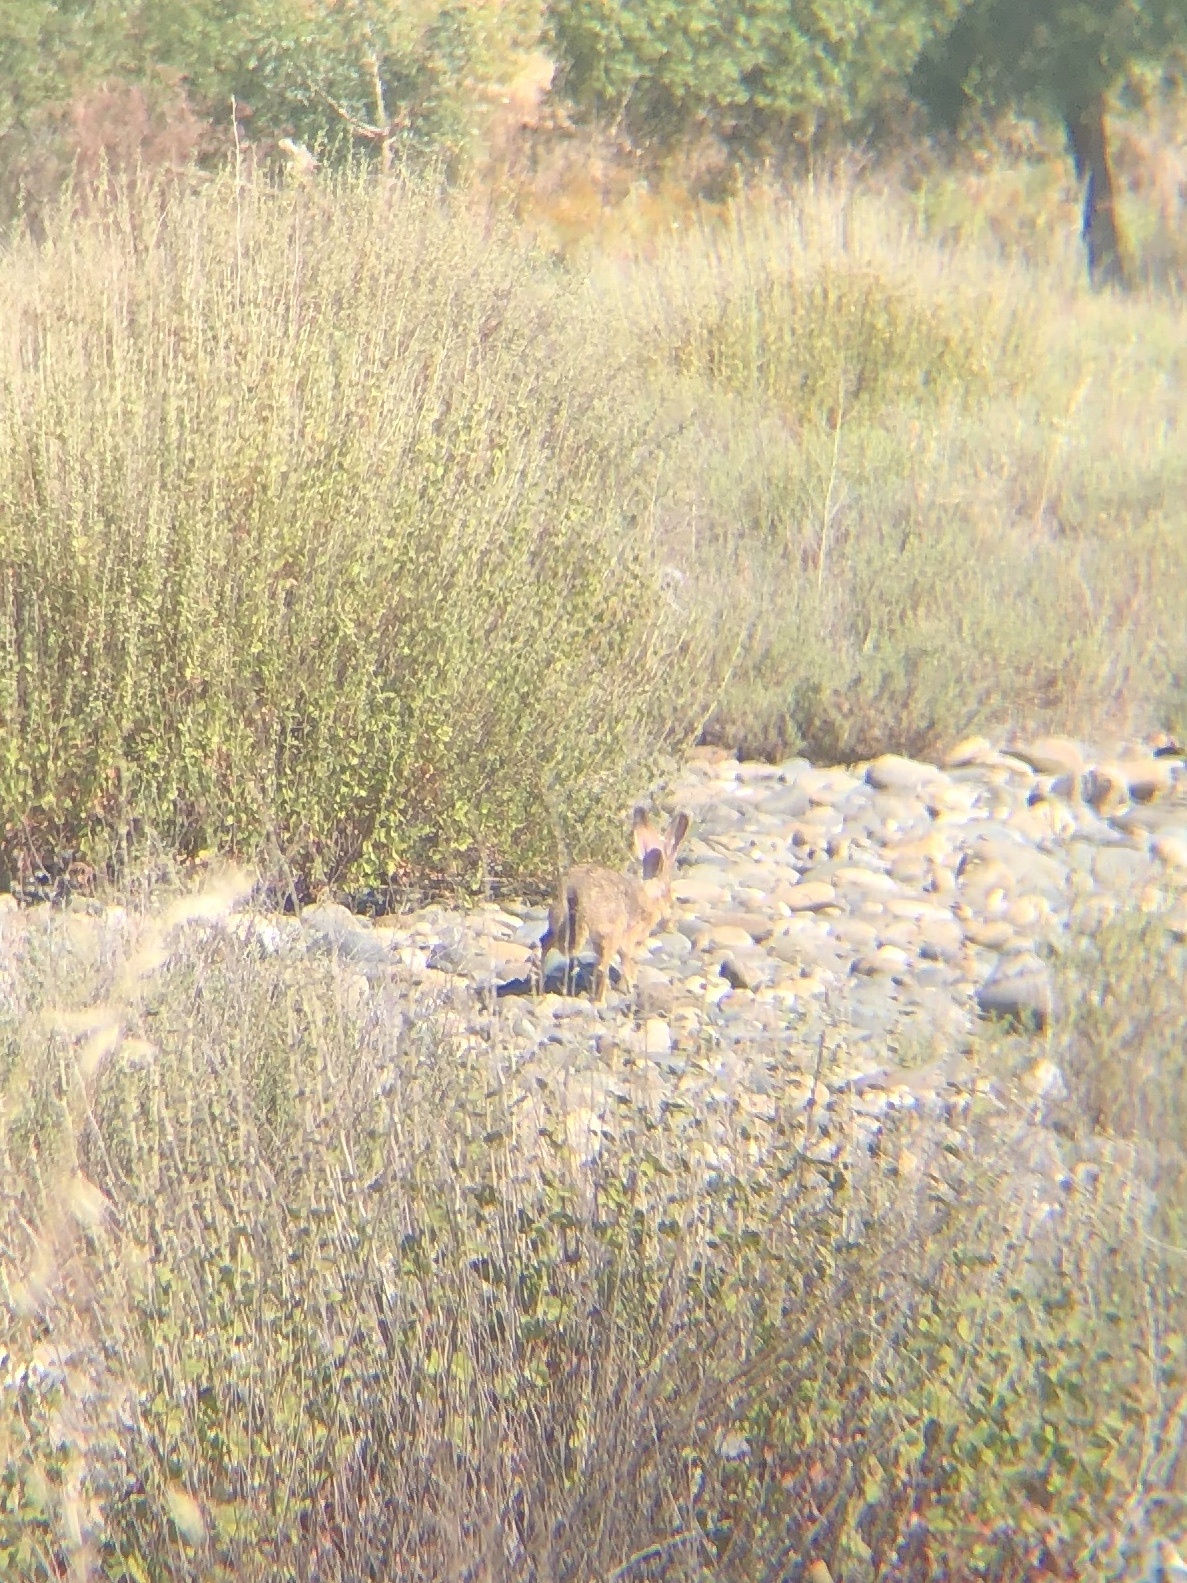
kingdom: Animalia
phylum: Chordata
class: Mammalia
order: Lagomorpha
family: Leporidae
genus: Lepus
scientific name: Lepus californicus
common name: Black-tailed jackrabbit
